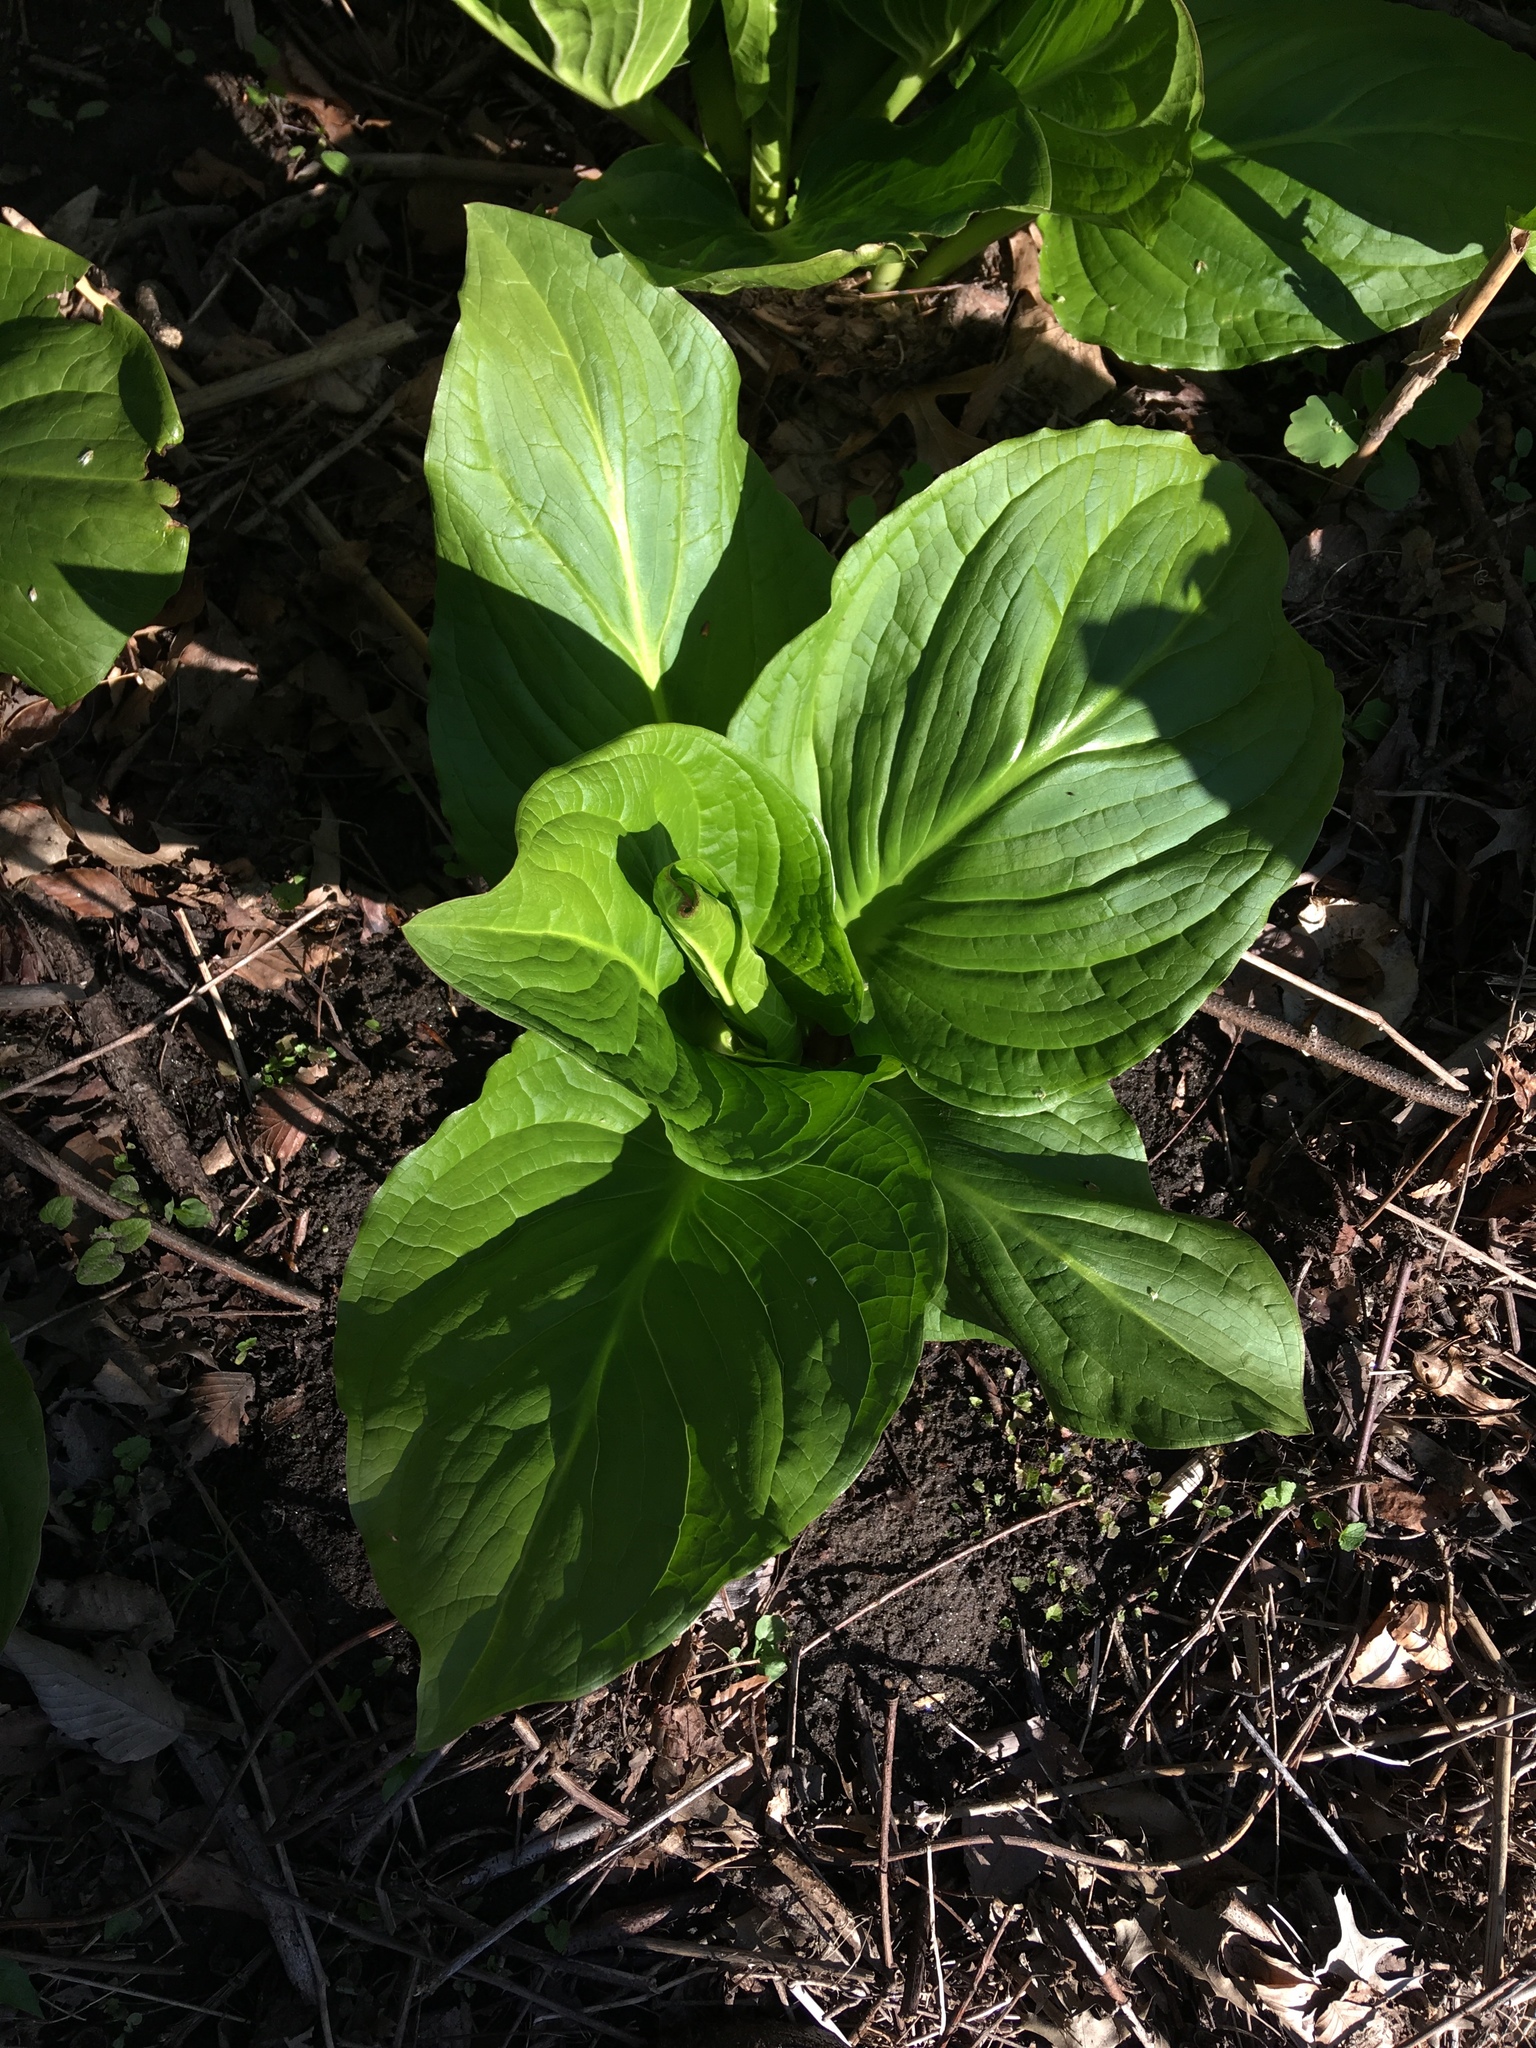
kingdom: Plantae
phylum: Tracheophyta
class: Liliopsida
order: Alismatales
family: Araceae
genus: Symplocarpus
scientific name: Symplocarpus foetidus
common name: Eastern skunk cabbage
